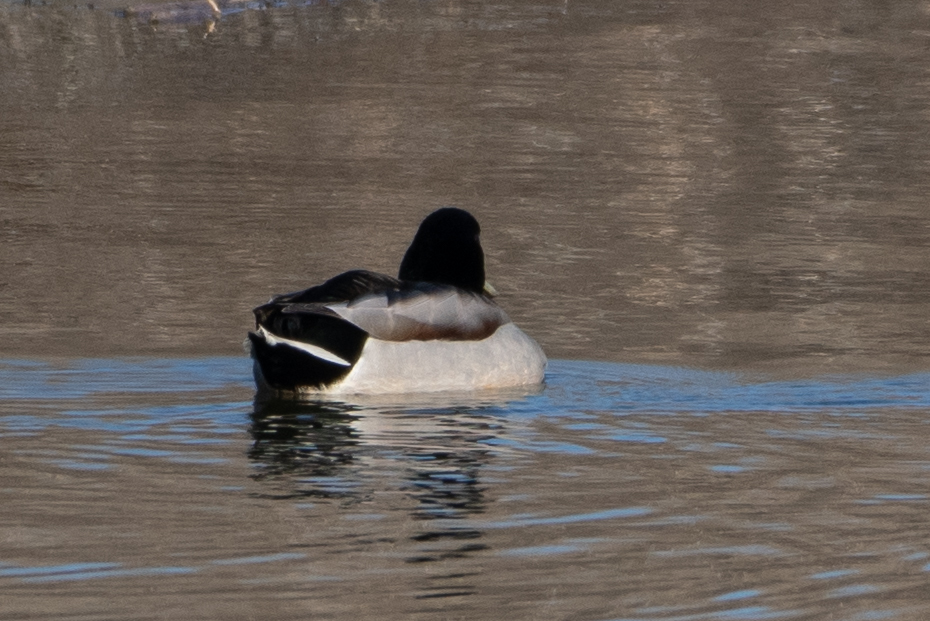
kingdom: Animalia
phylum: Chordata
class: Aves
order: Anseriformes
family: Anatidae
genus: Anas
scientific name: Anas platyrhynchos
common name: Mallard
